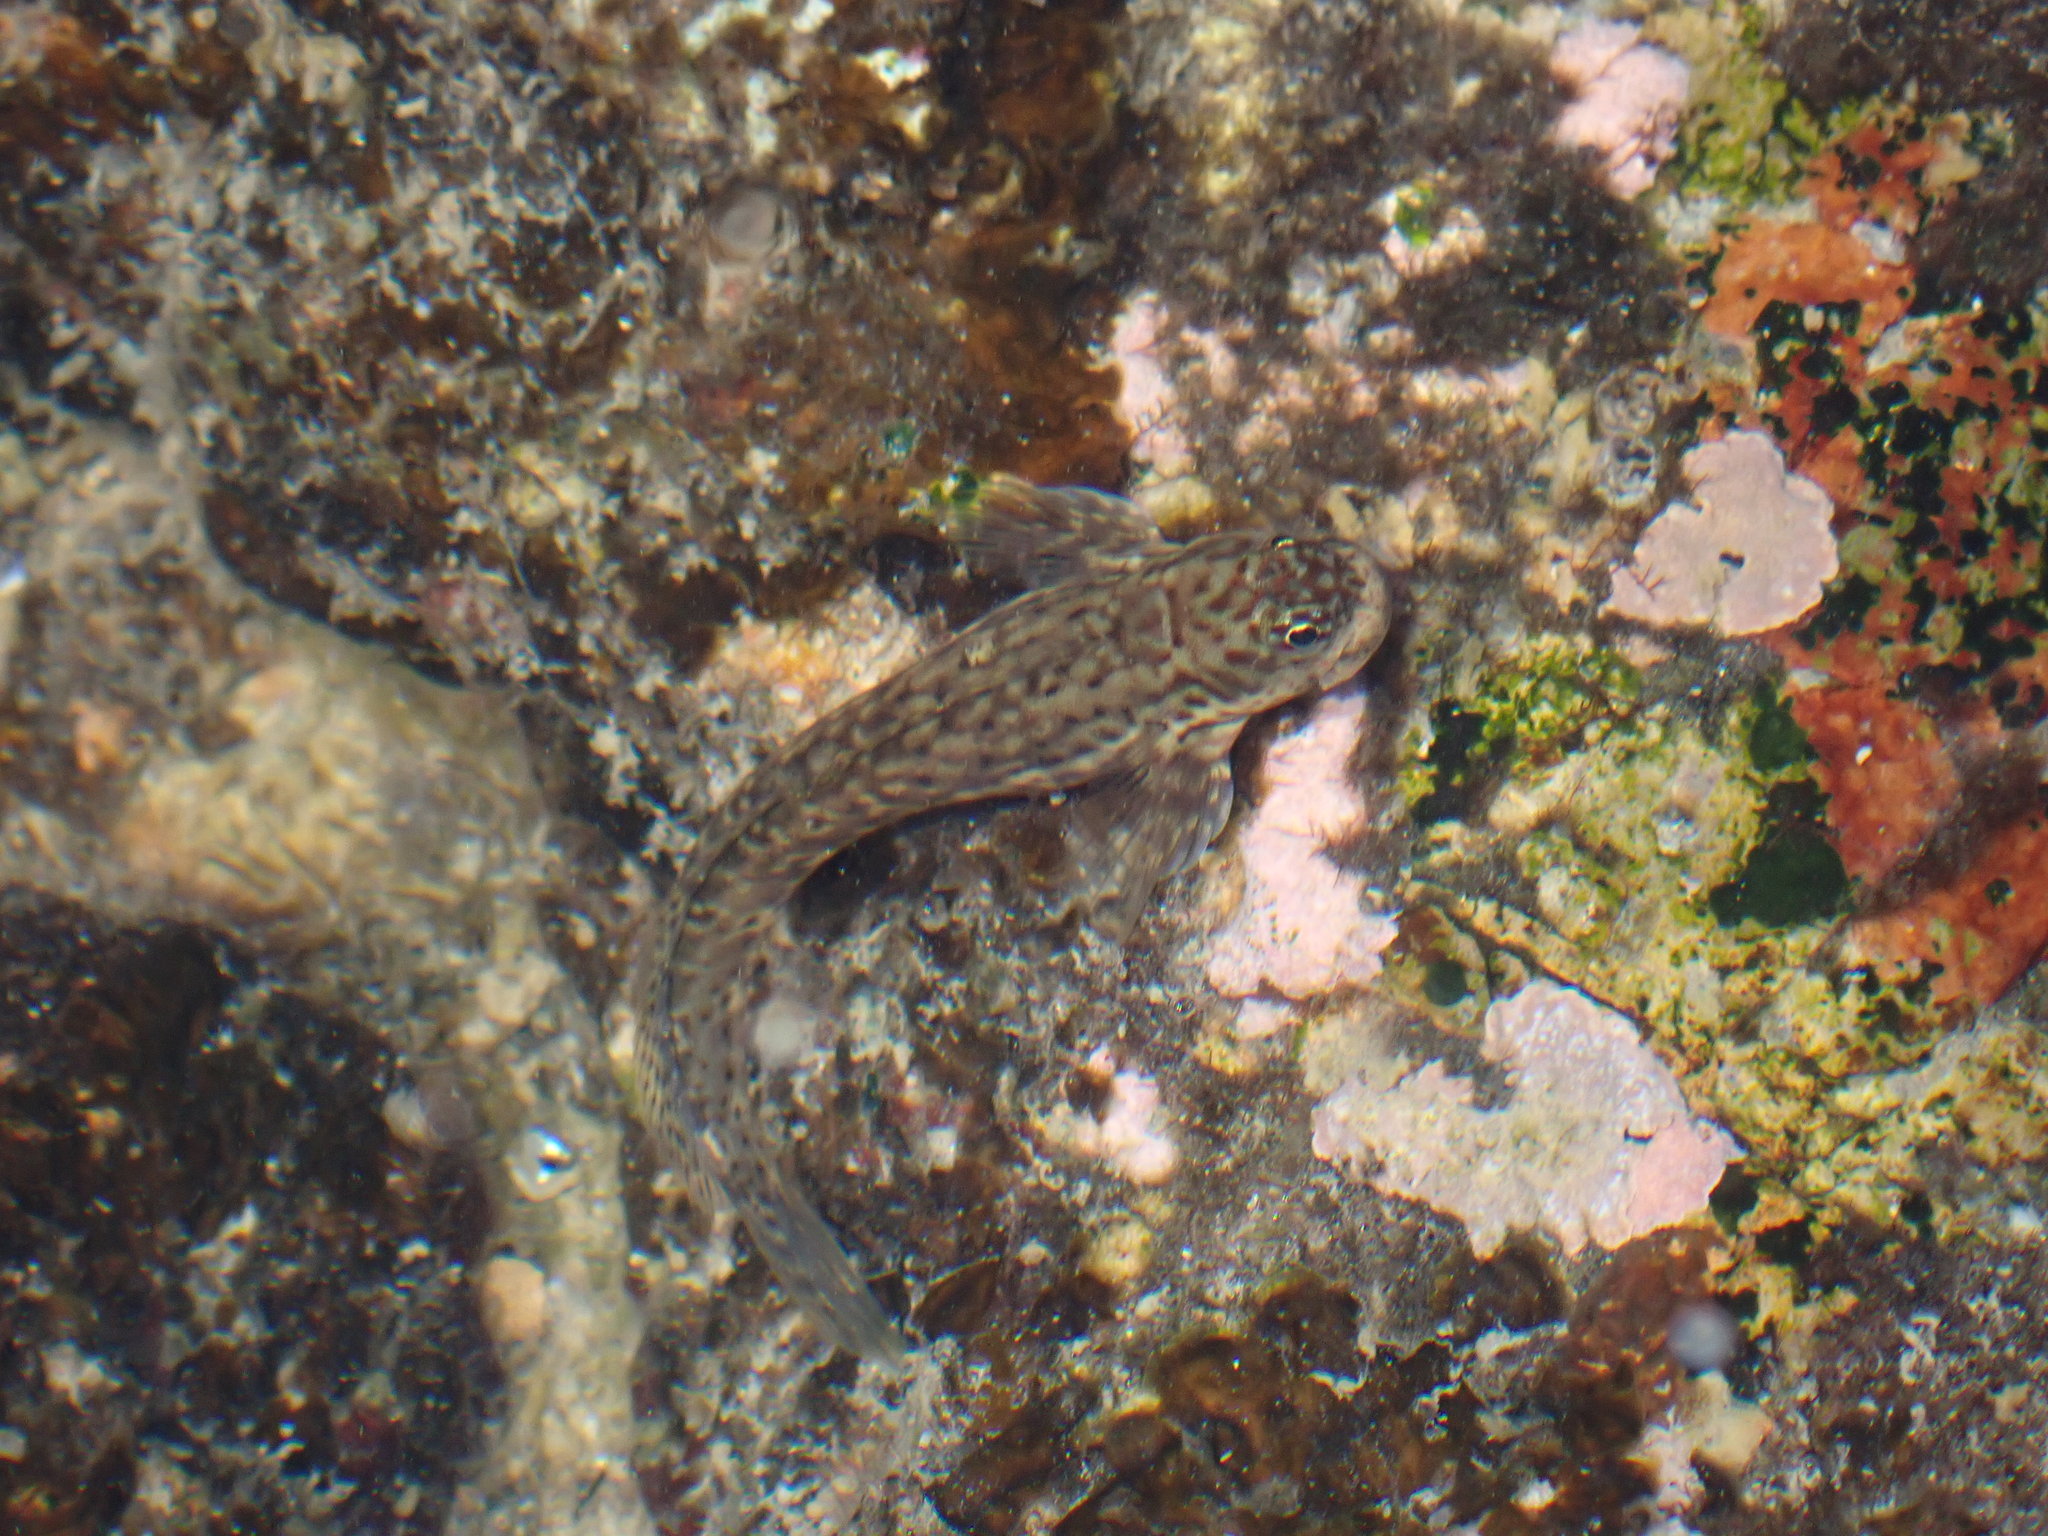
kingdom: Animalia
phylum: Chordata
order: Perciformes
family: Blenniidae
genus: Istiblennius
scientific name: Istiblennius dussumieri
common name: Dussumier's rockskipper
